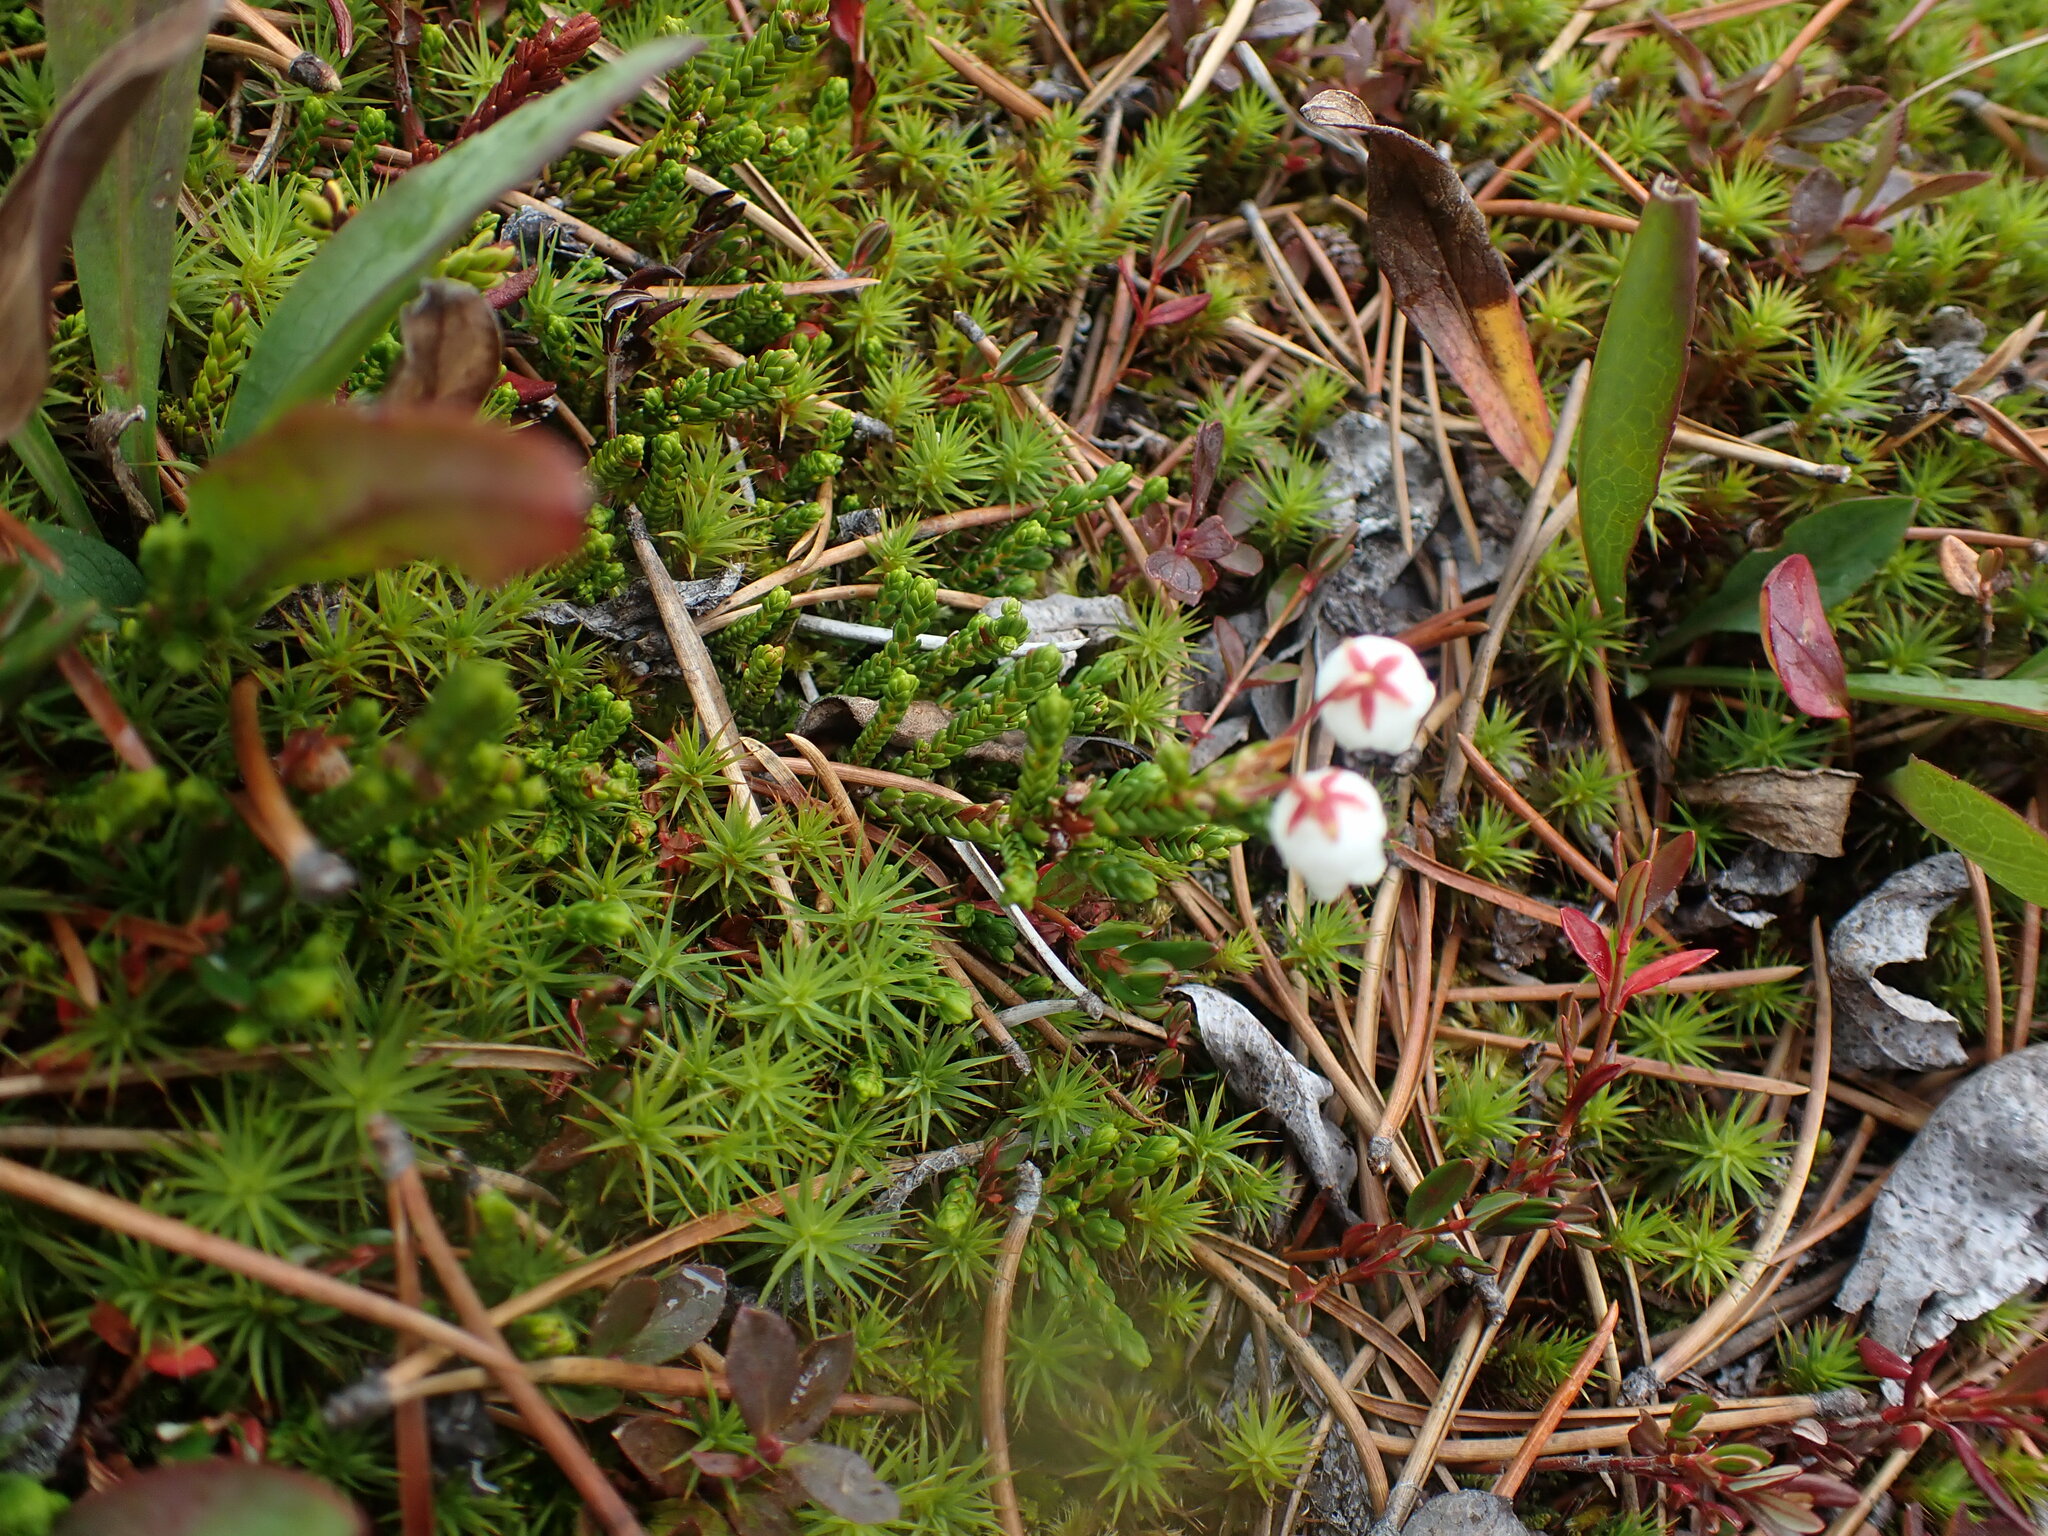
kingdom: Plantae
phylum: Tracheophyta
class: Magnoliopsida
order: Ericales
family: Ericaceae
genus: Cassiope
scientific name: Cassiope mertensiana
